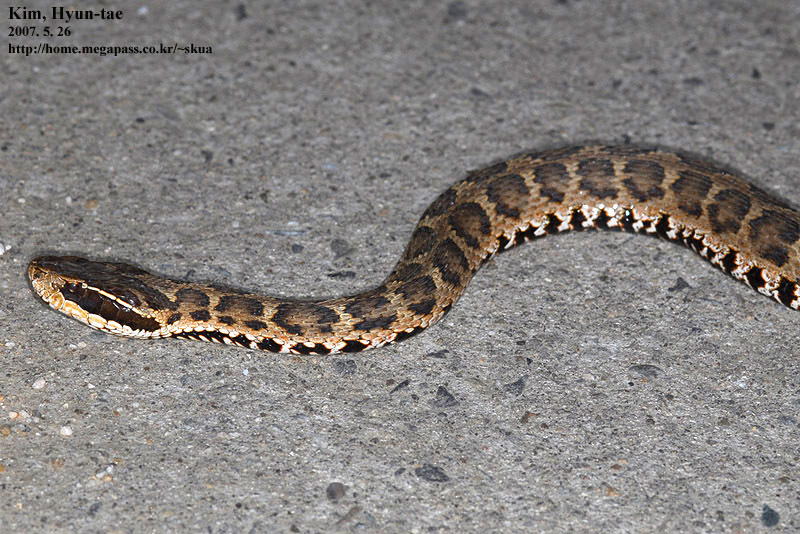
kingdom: Animalia
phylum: Chordata
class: Squamata
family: Viperidae
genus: Gloydius
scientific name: Gloydius brevicauda
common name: Short-tailed mamushi
